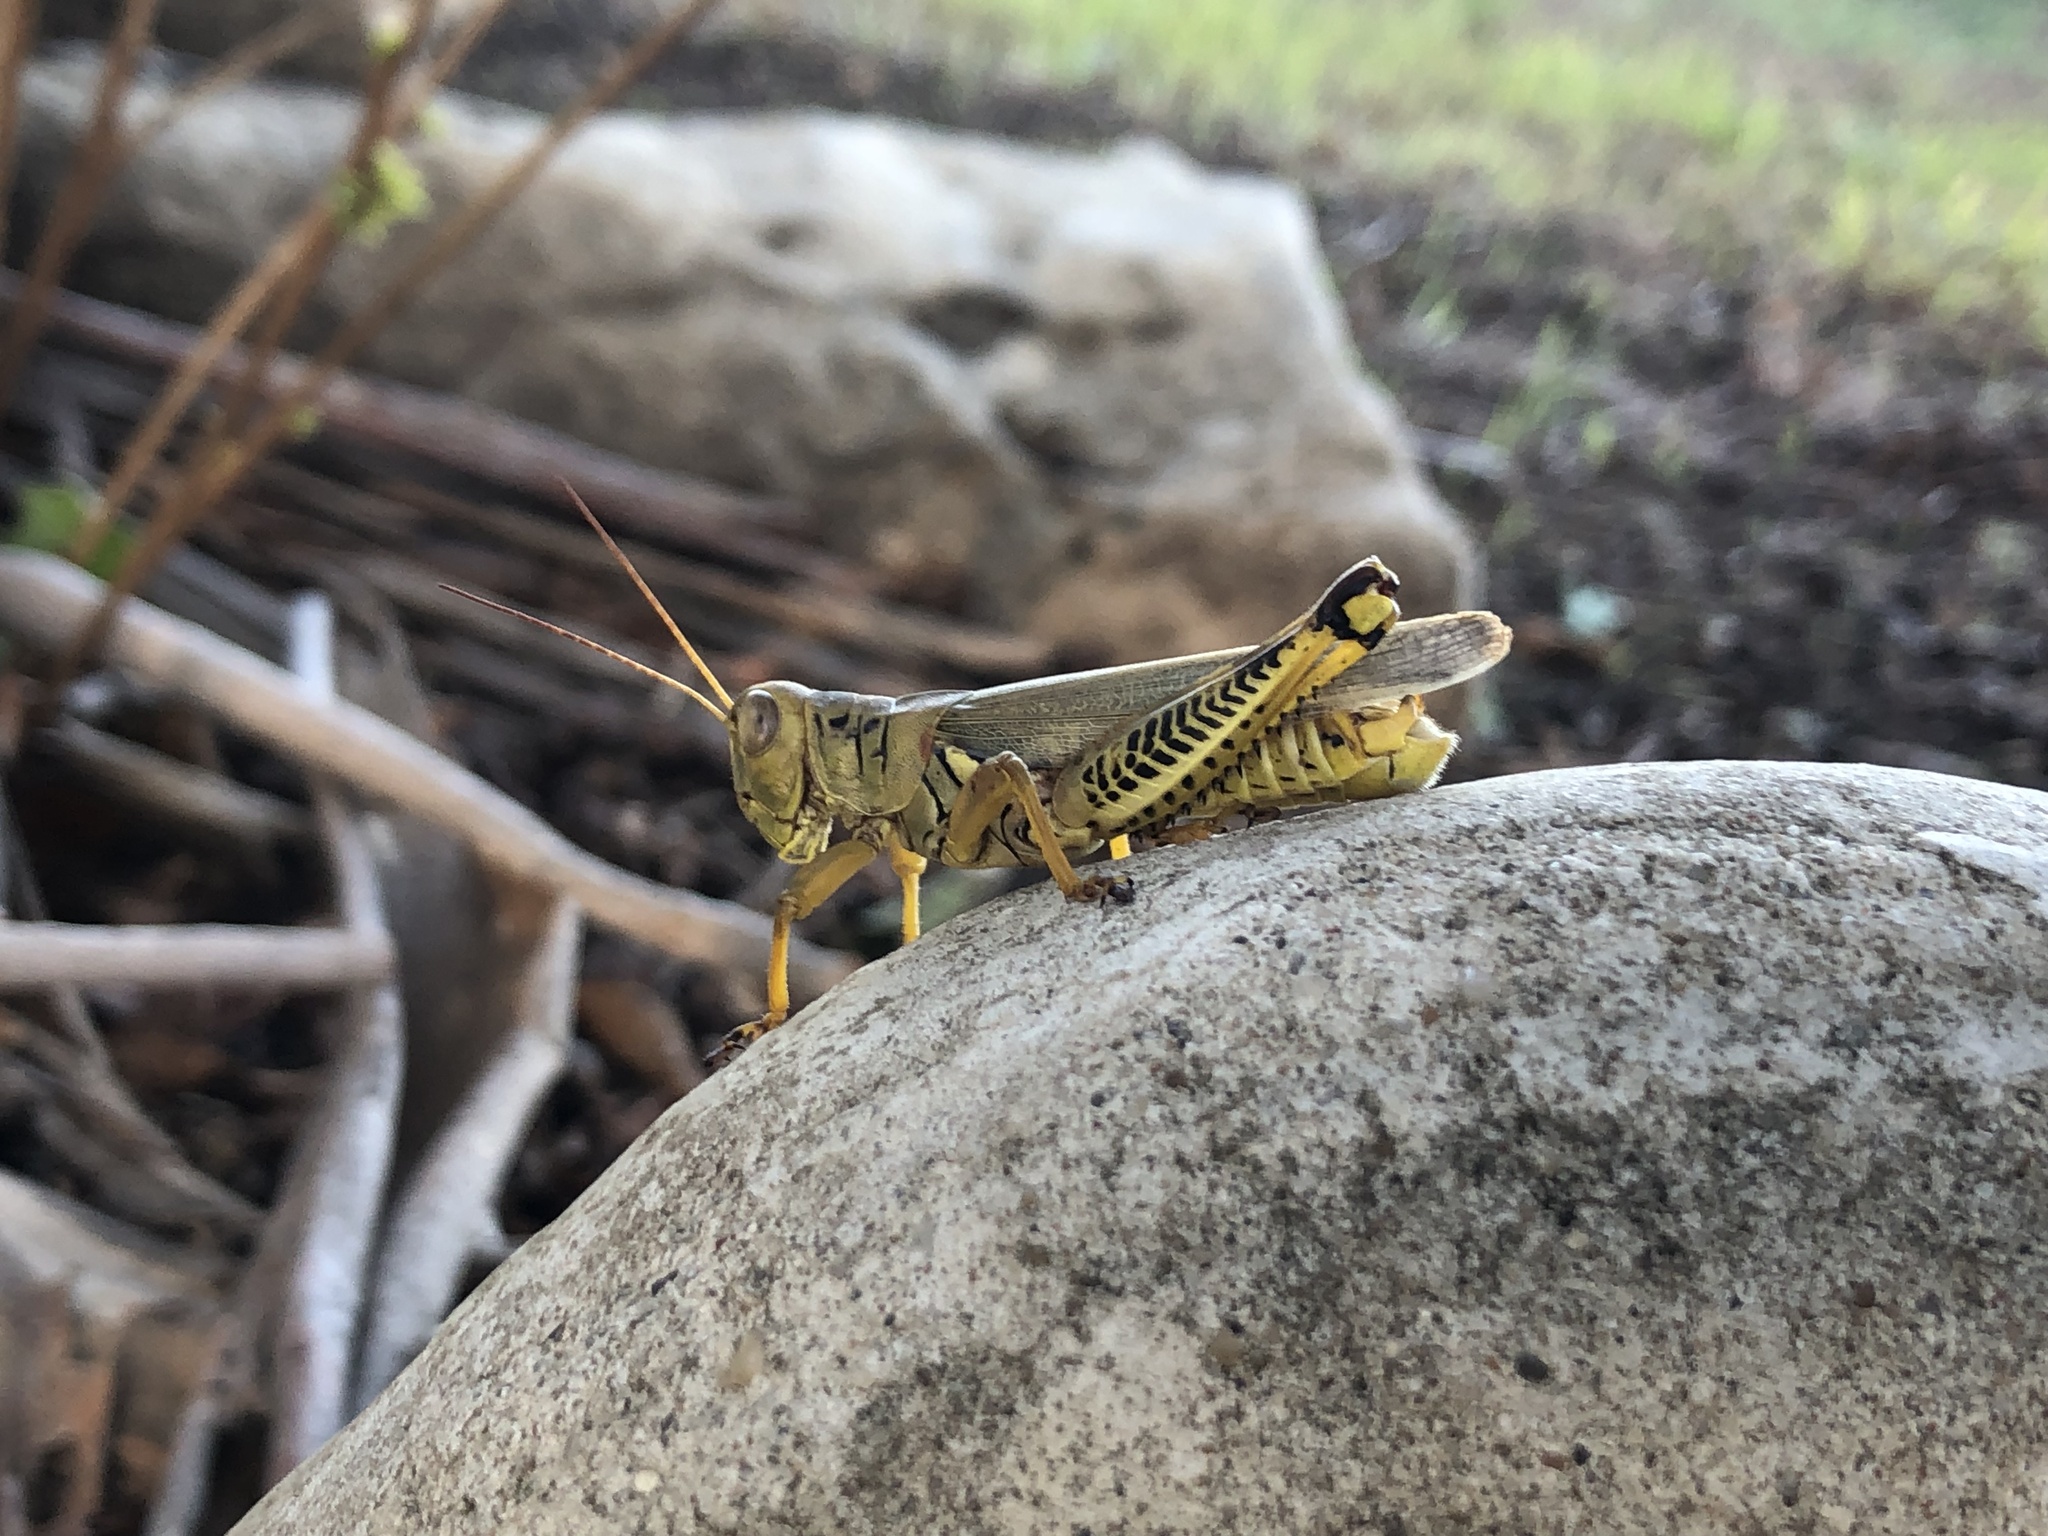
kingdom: Animalia
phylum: Arthropoda
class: Insecta
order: Orthoptera
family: Acrididae
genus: Melanoplus
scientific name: Melanoplus differentialis
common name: Differential grasshopper
